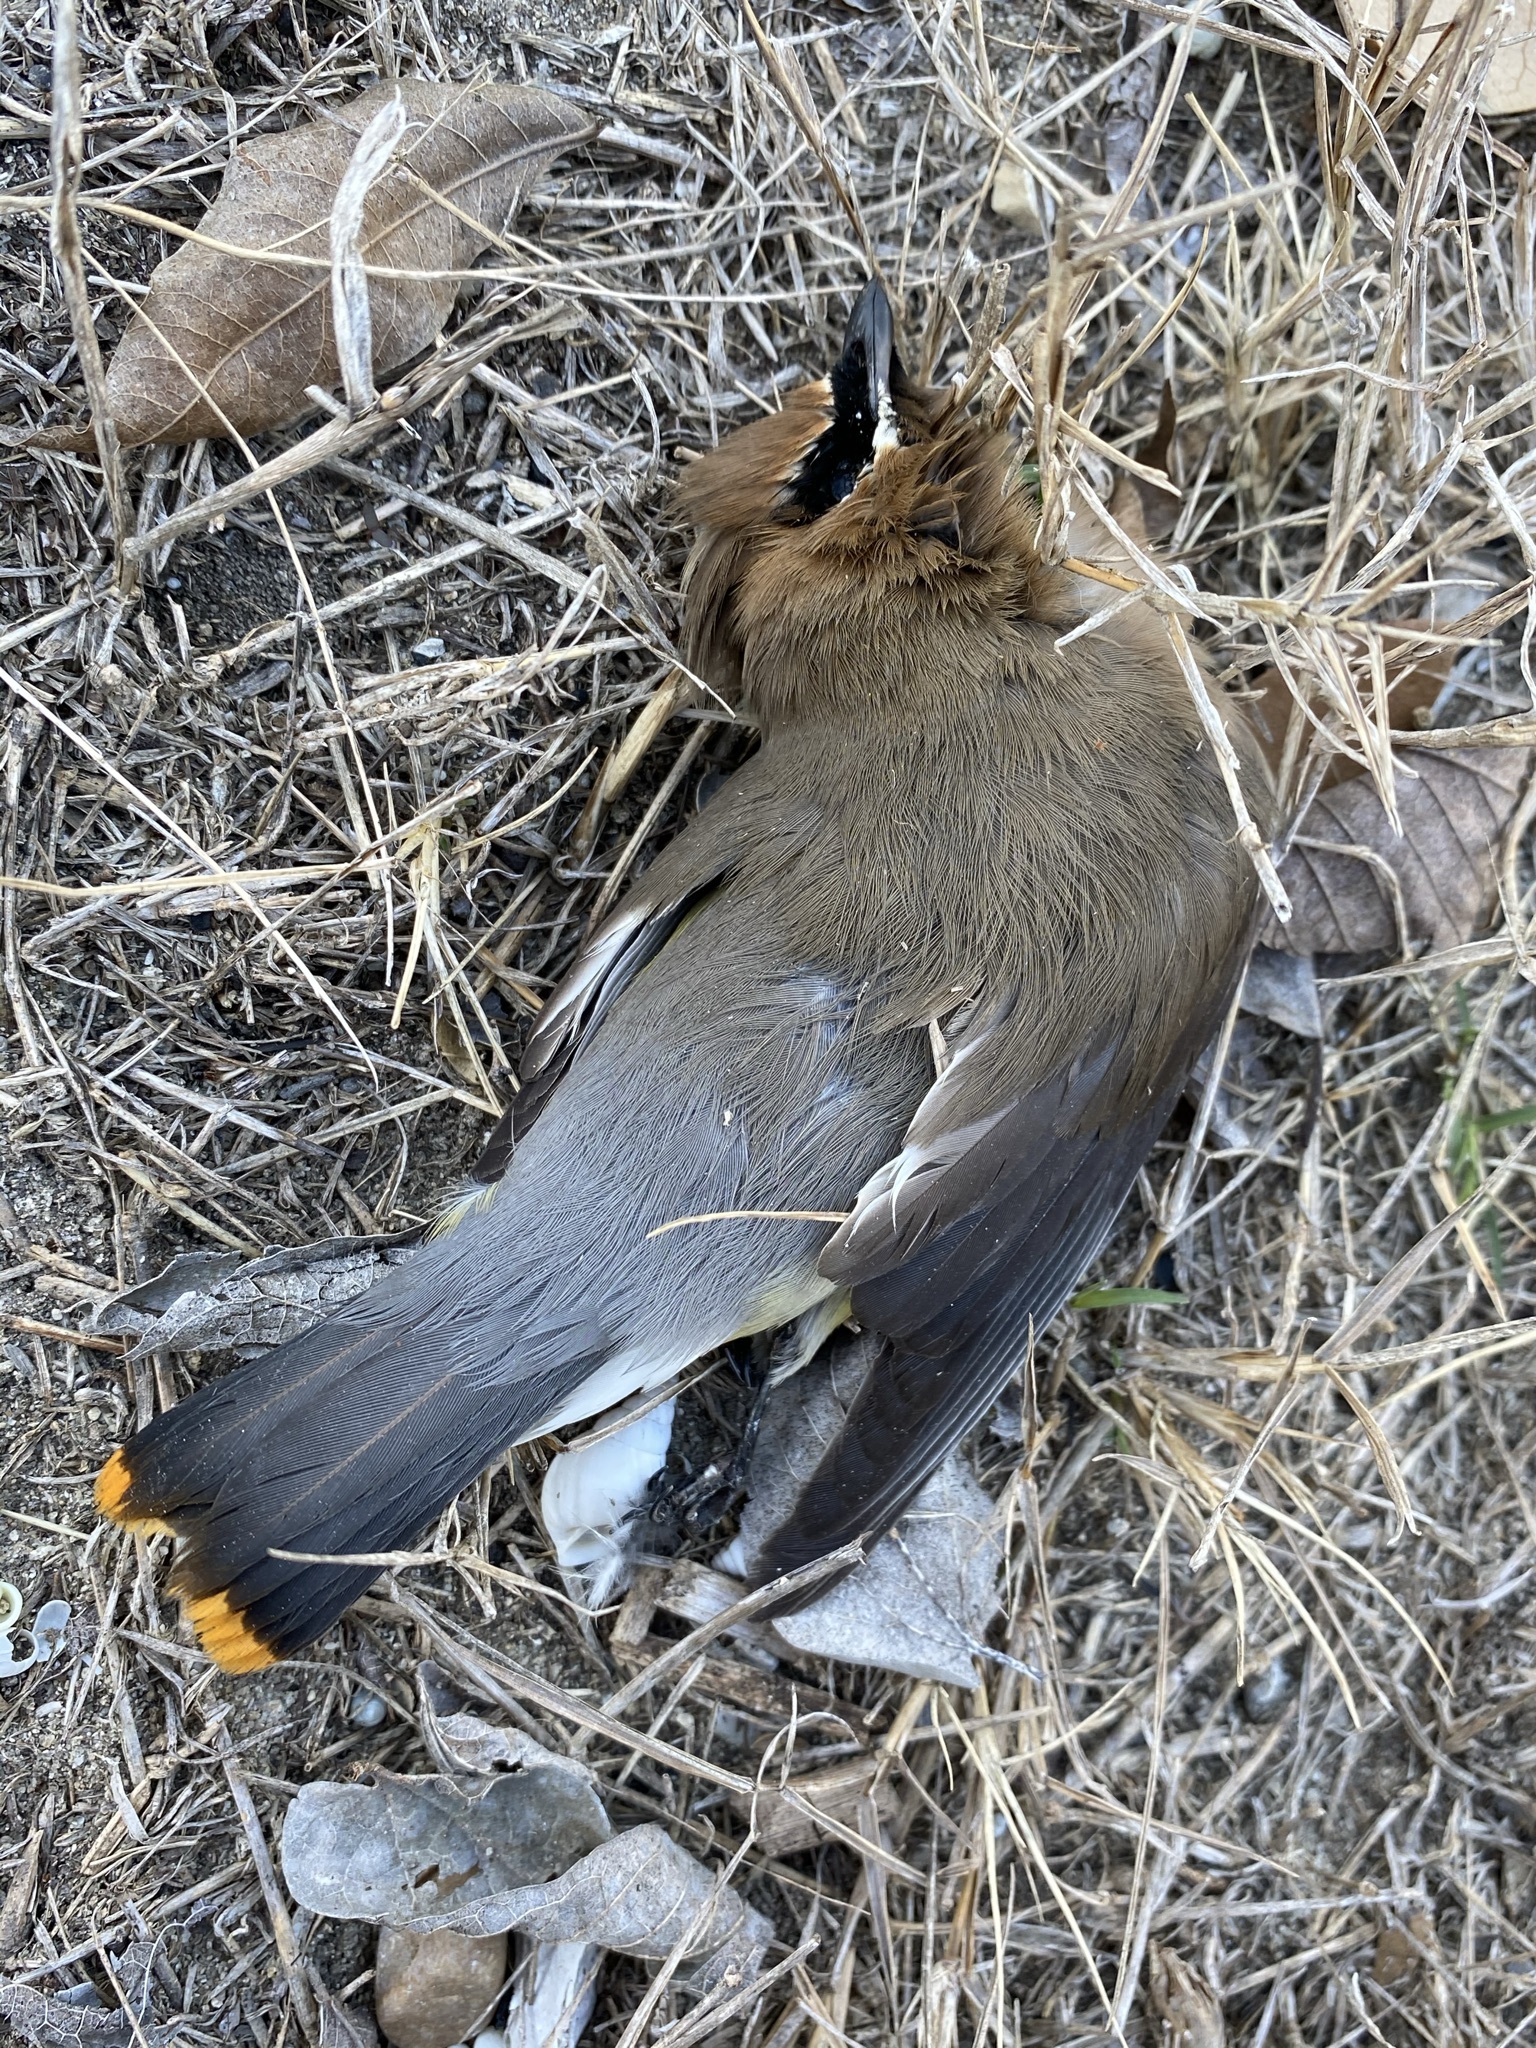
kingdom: Animalia
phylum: Chordata
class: Aves
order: Passeriformes
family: Bombycillidae
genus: Bombycilla
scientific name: Bombycilla cedrorum
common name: Cedar waxwing
